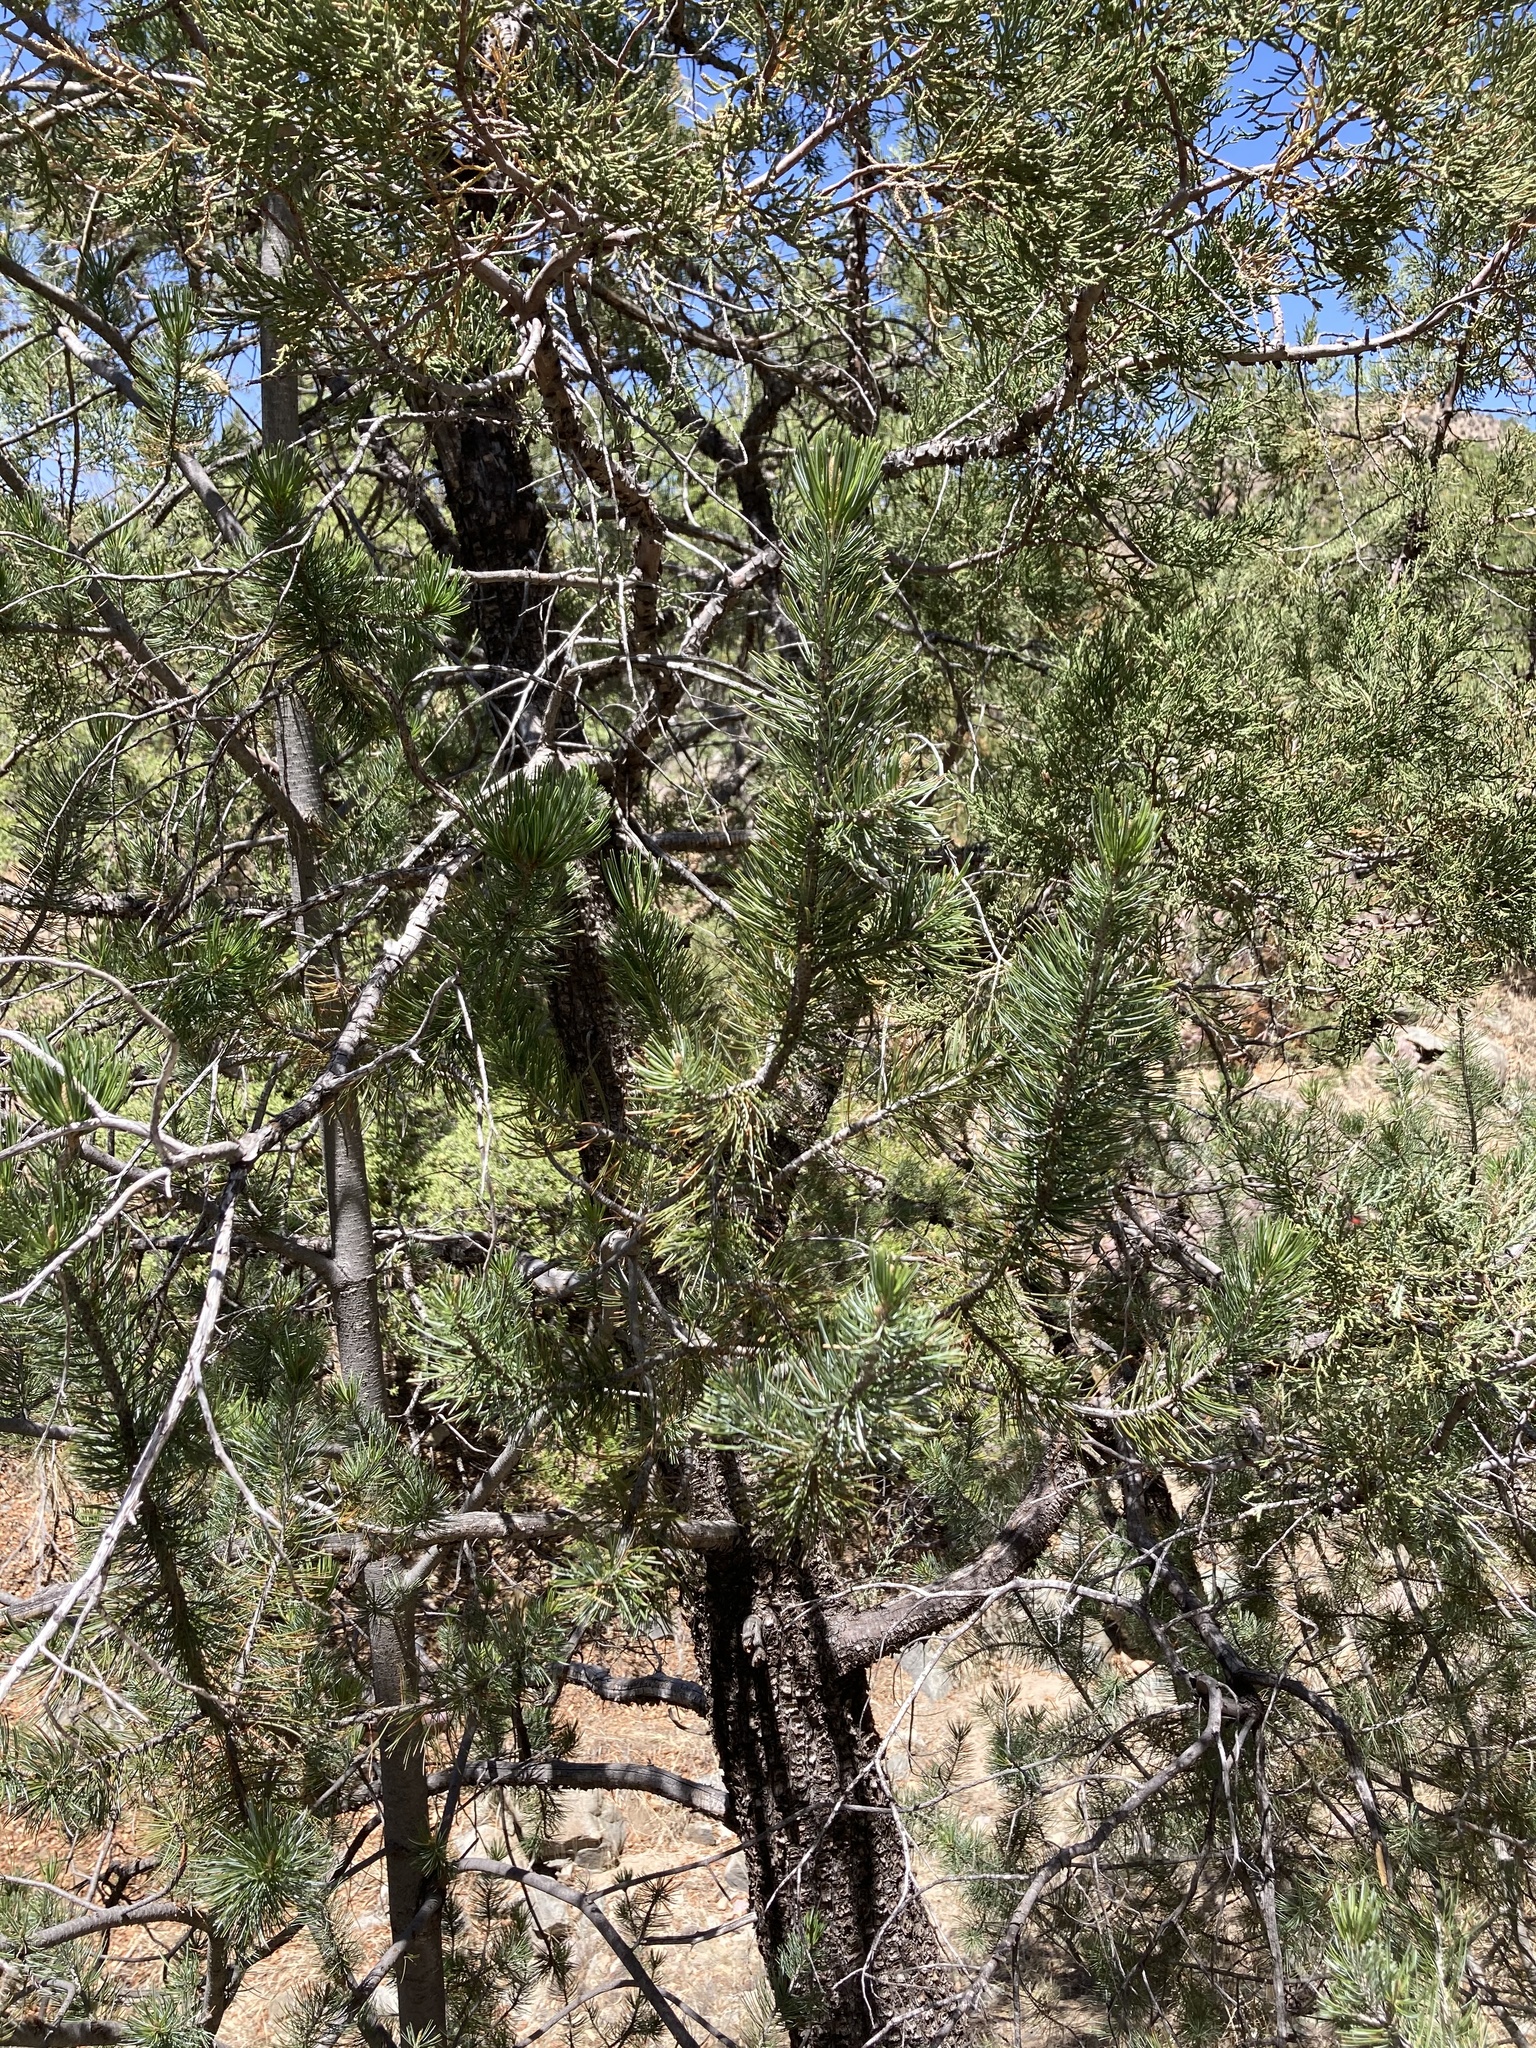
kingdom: Plantae
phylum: Tracheophyta
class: Pinopsida
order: Pinales
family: Pinaceae
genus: Pinus
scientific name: Pinus cembroides
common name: Mexican nut pine
